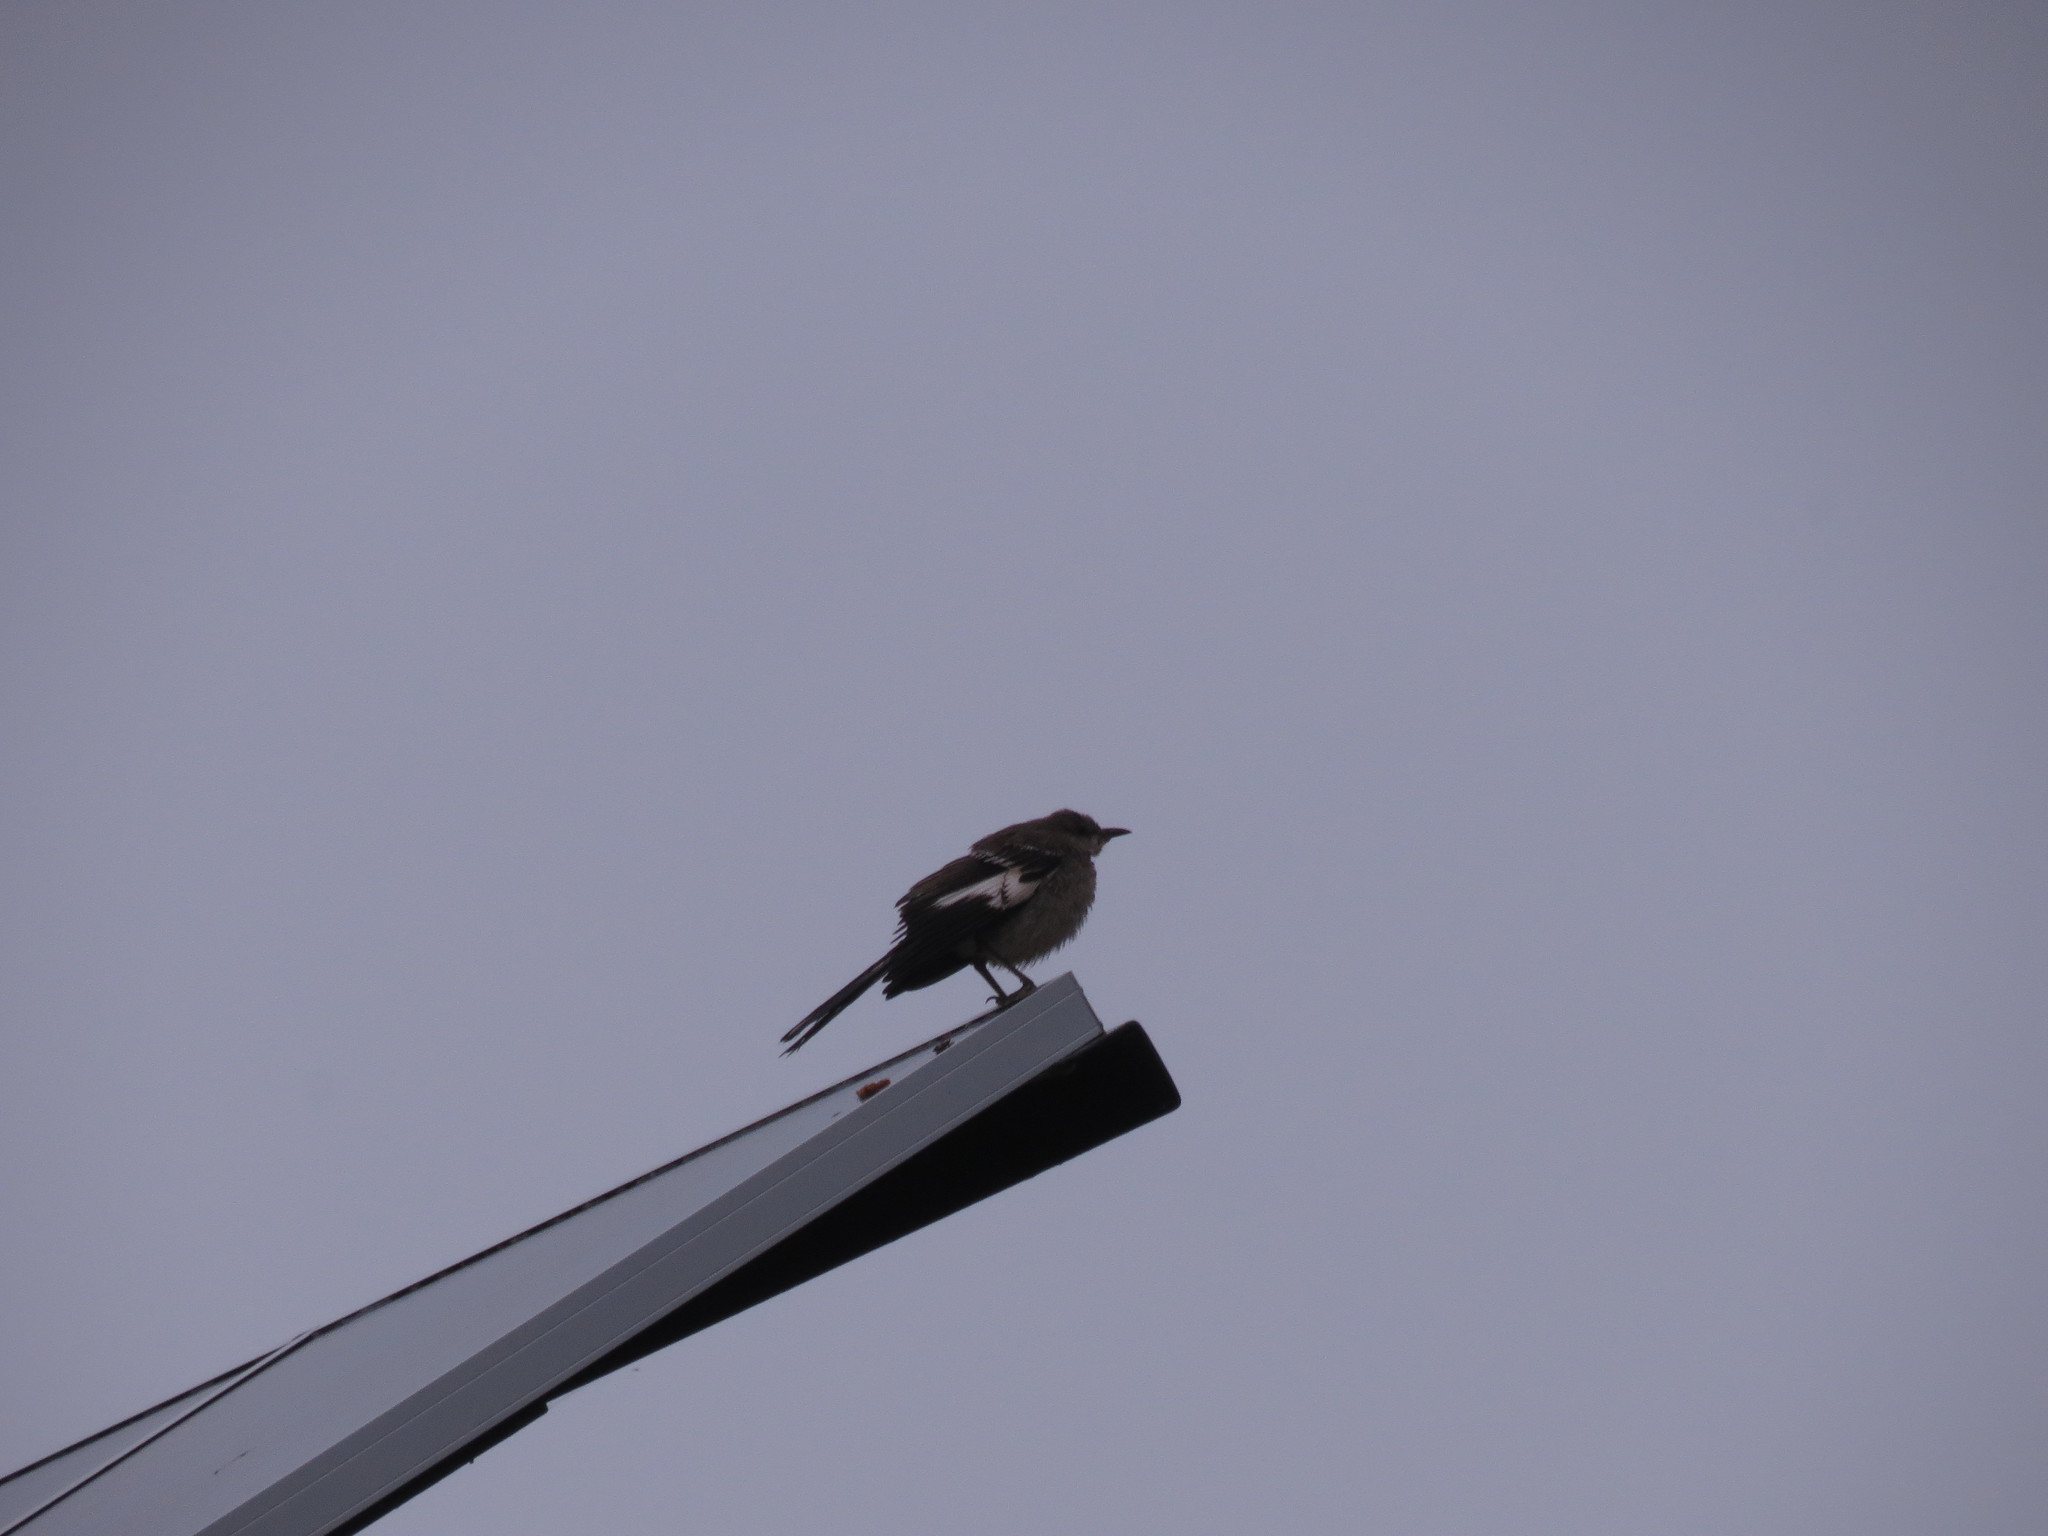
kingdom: Animalia
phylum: Chordata
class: Aves
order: Passeriformes
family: Mimidae
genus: Mimus
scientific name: Mimus polyglottos
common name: Northern mockingbird
